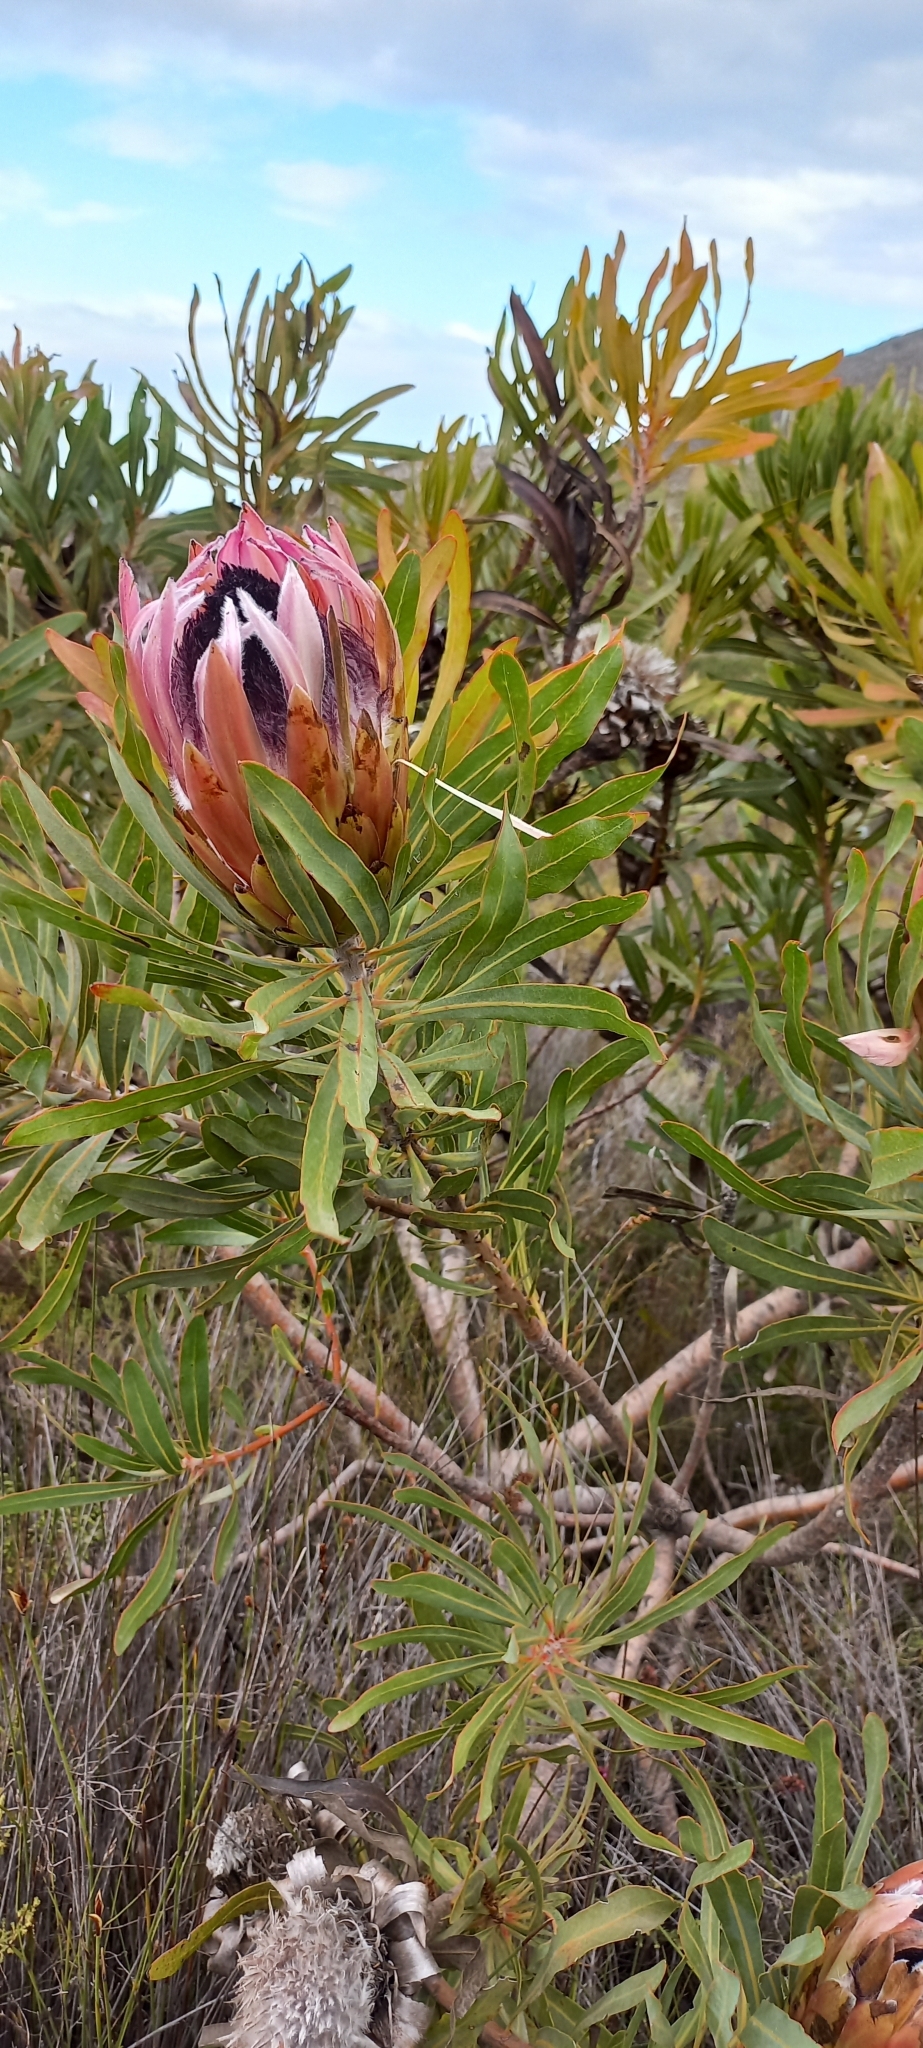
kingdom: Plantae
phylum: Tracheophyta
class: Magnoliopsida
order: Proteales
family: Proteaceae
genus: Protea
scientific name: Protea longifolia
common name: Long-leaf sugarbush
